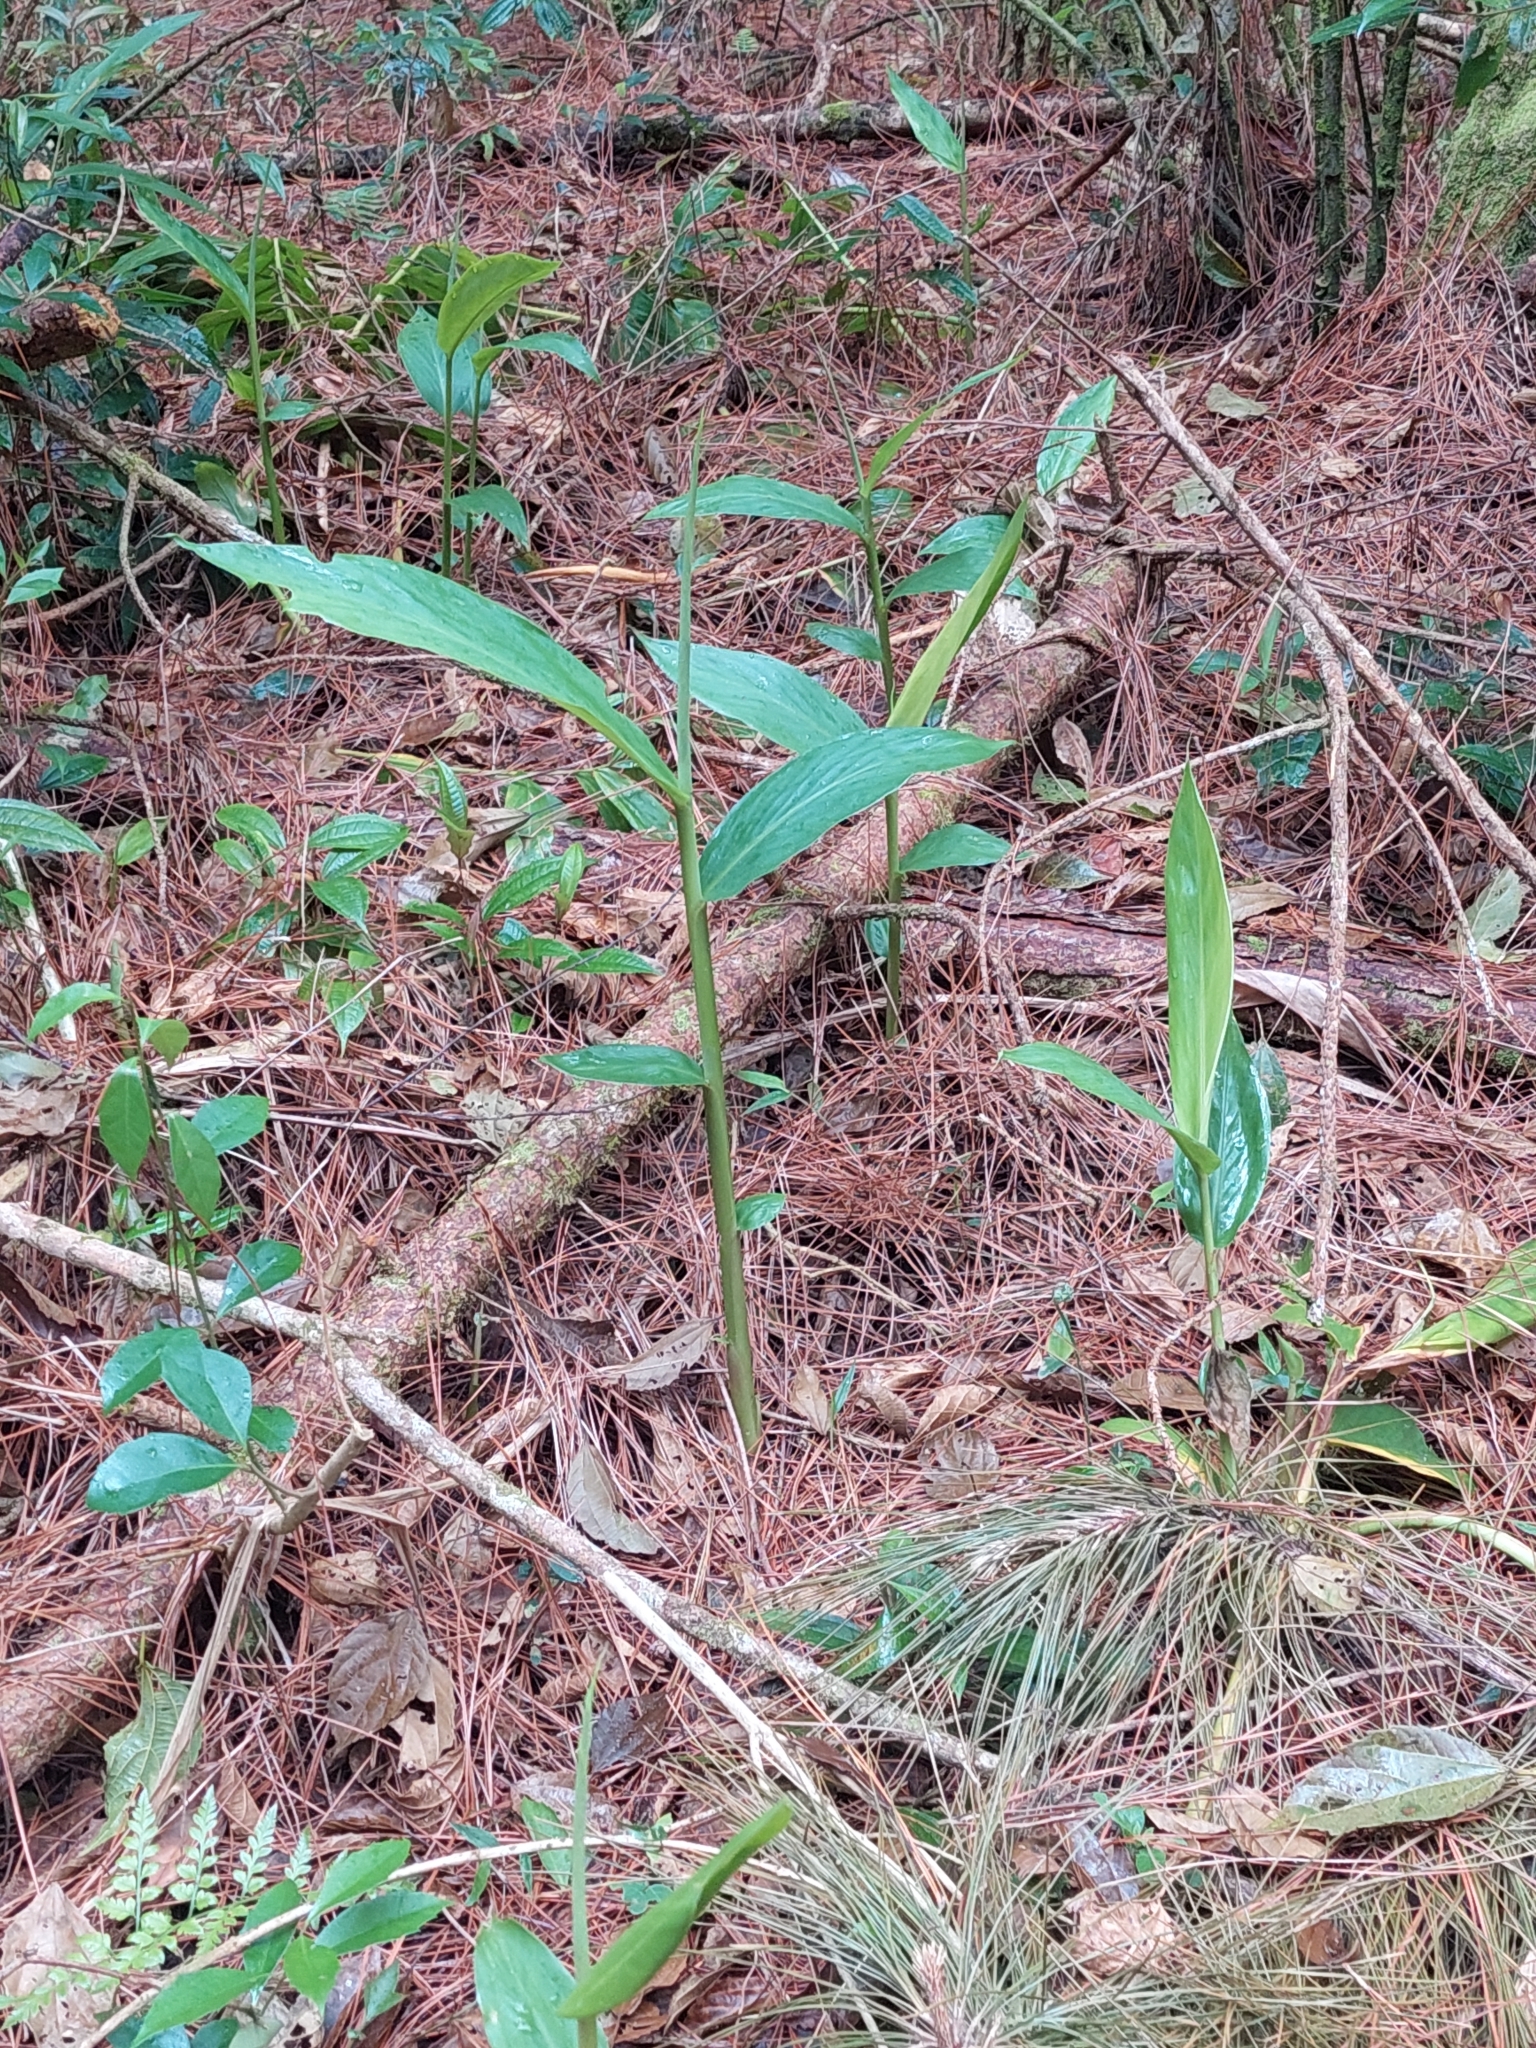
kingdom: Plantae
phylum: Tracheophyta
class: Liliopsida
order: Zingiberales
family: Zingiberaceae
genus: Hedychium
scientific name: Hedychium coronarium
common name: White garland-lily
